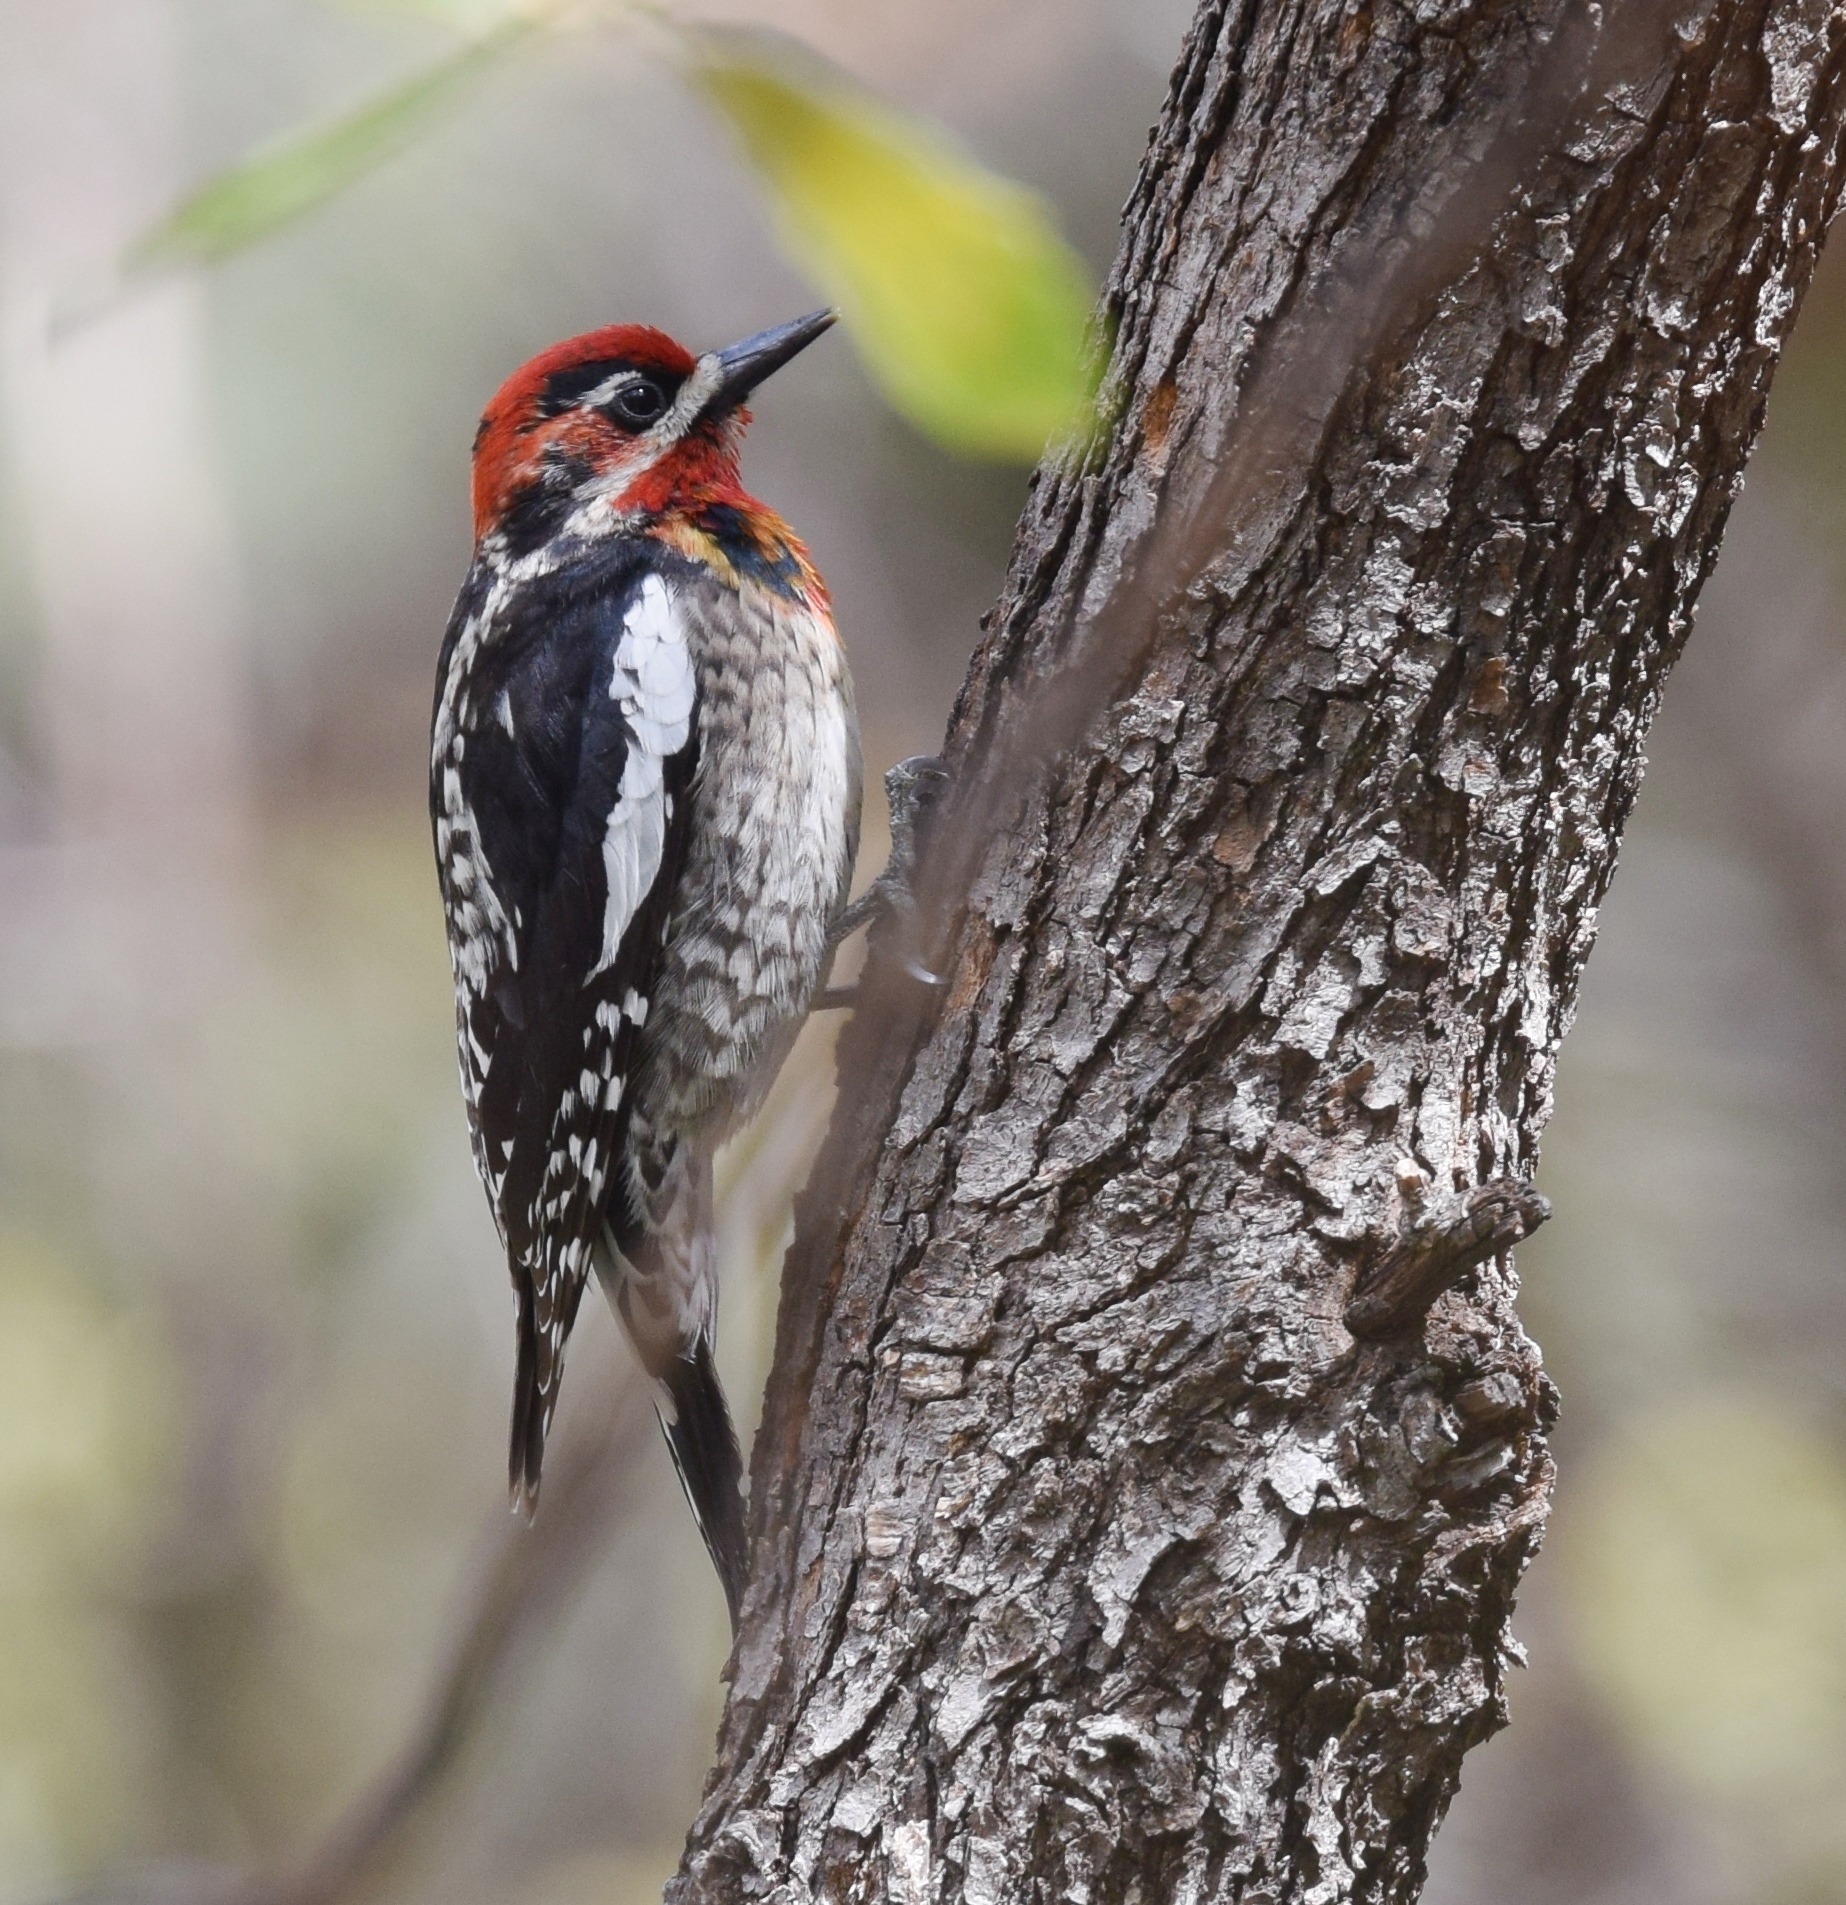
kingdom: Animalia
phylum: Chordata
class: Aves
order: Piciformes
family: Picidae
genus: Sphyrapicus
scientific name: Sphyrapicus
